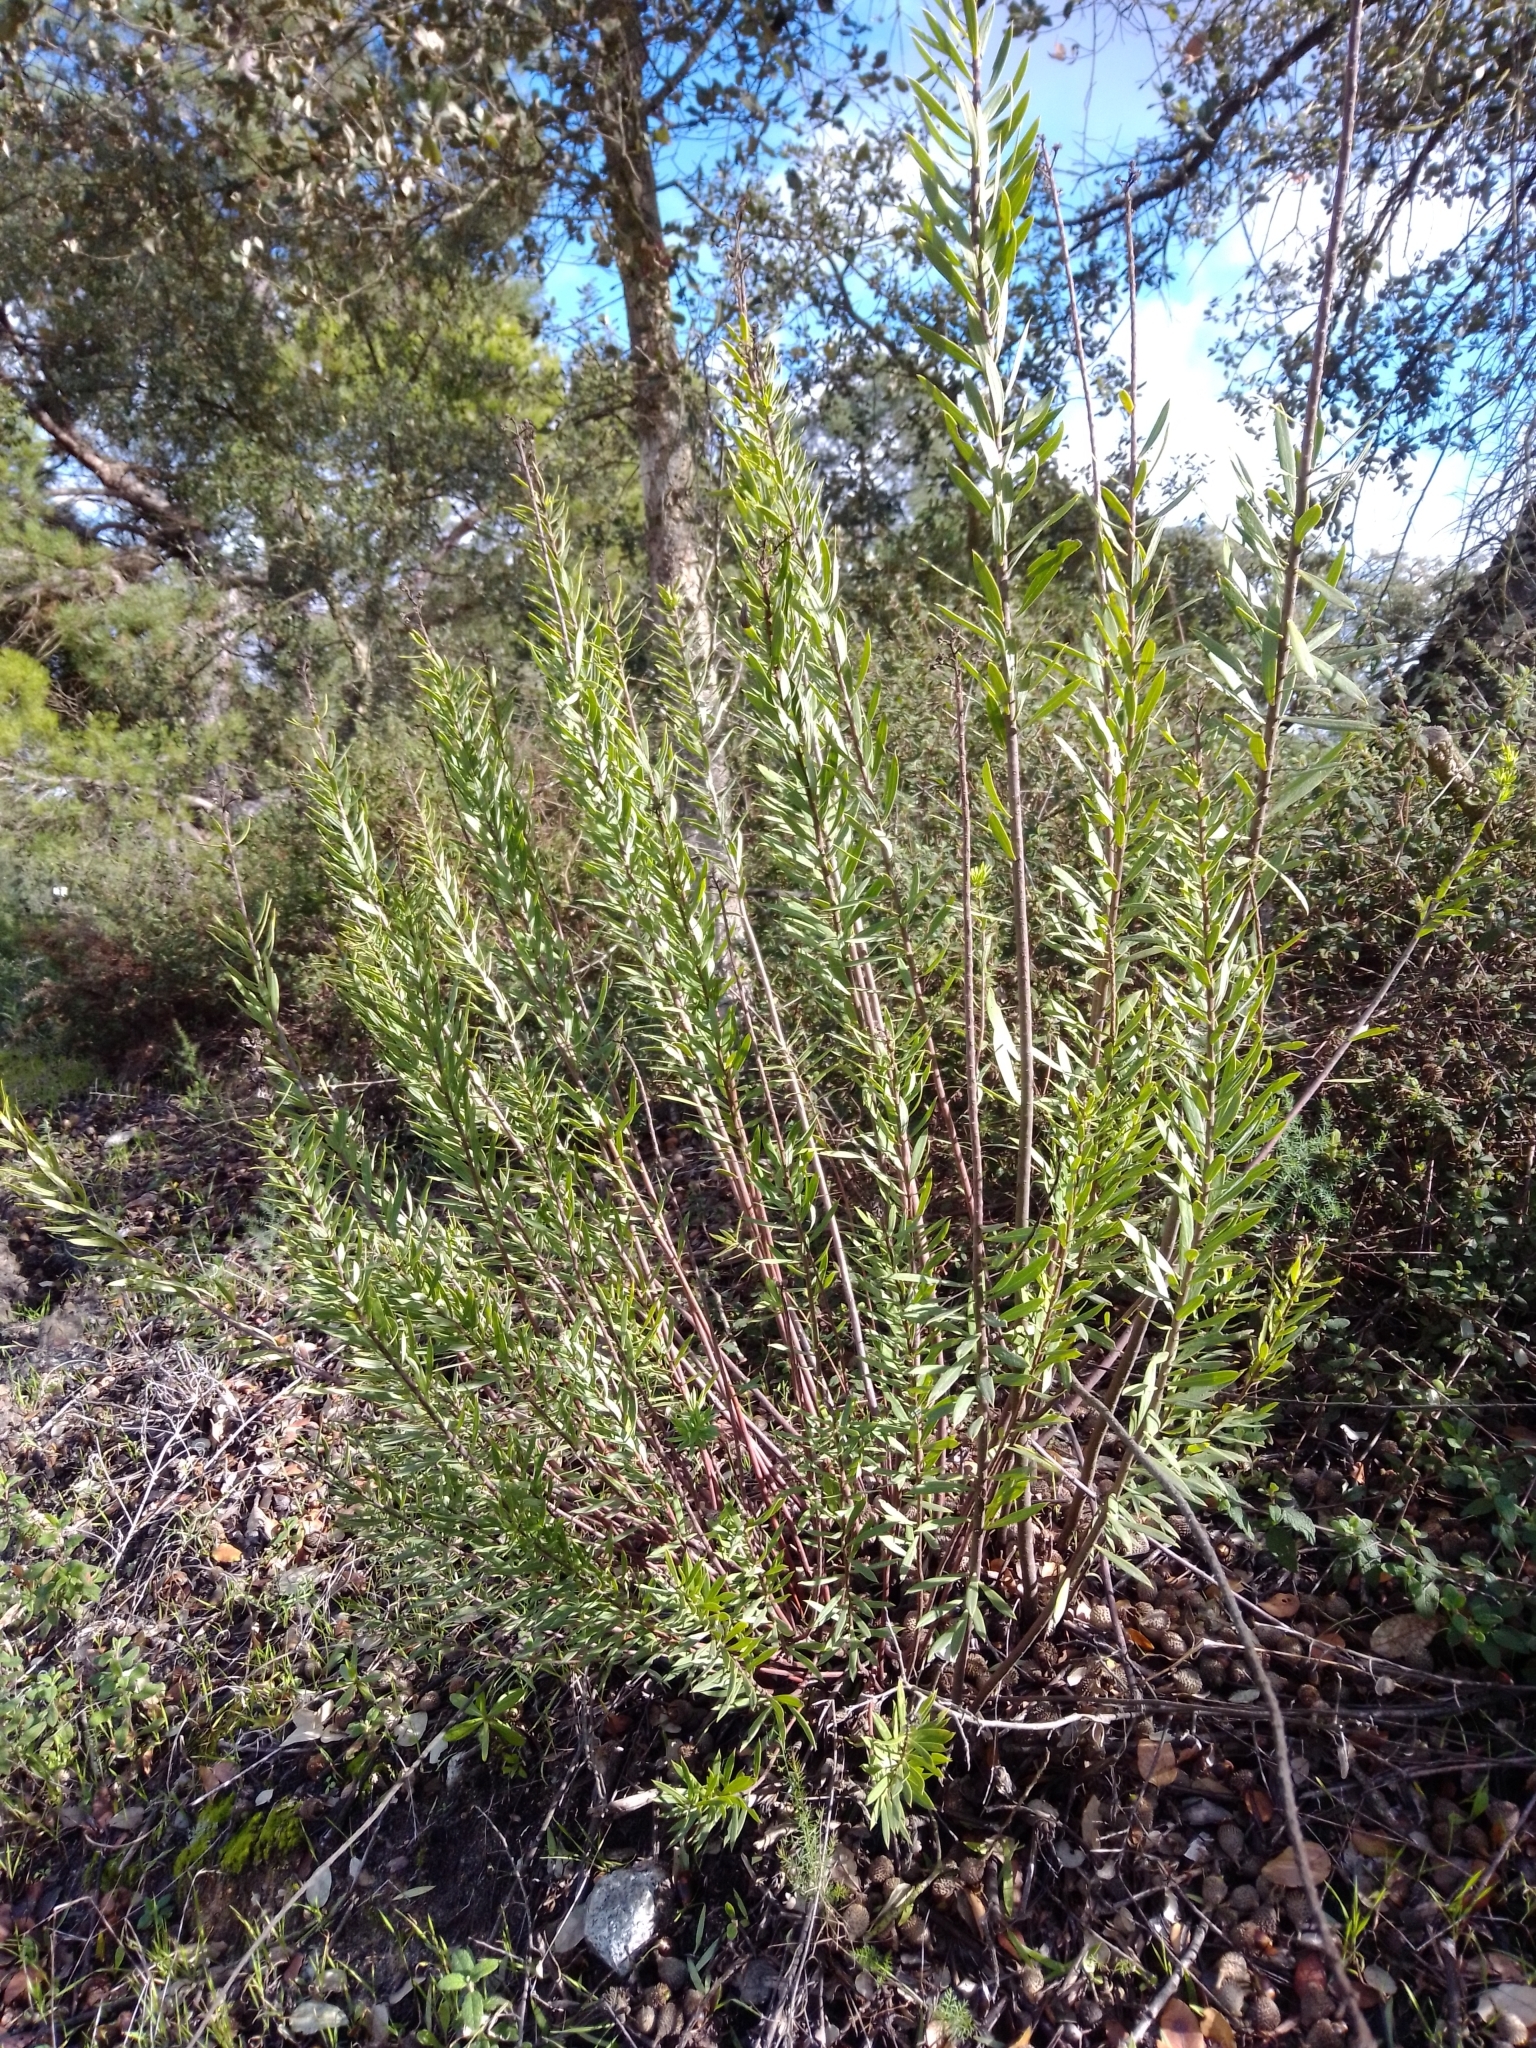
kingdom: Plantae
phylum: Tracheophyta
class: Magnoliopsida
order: Malvales
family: Thymelaeaceae
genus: Daphne
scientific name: Daphne gnidium
